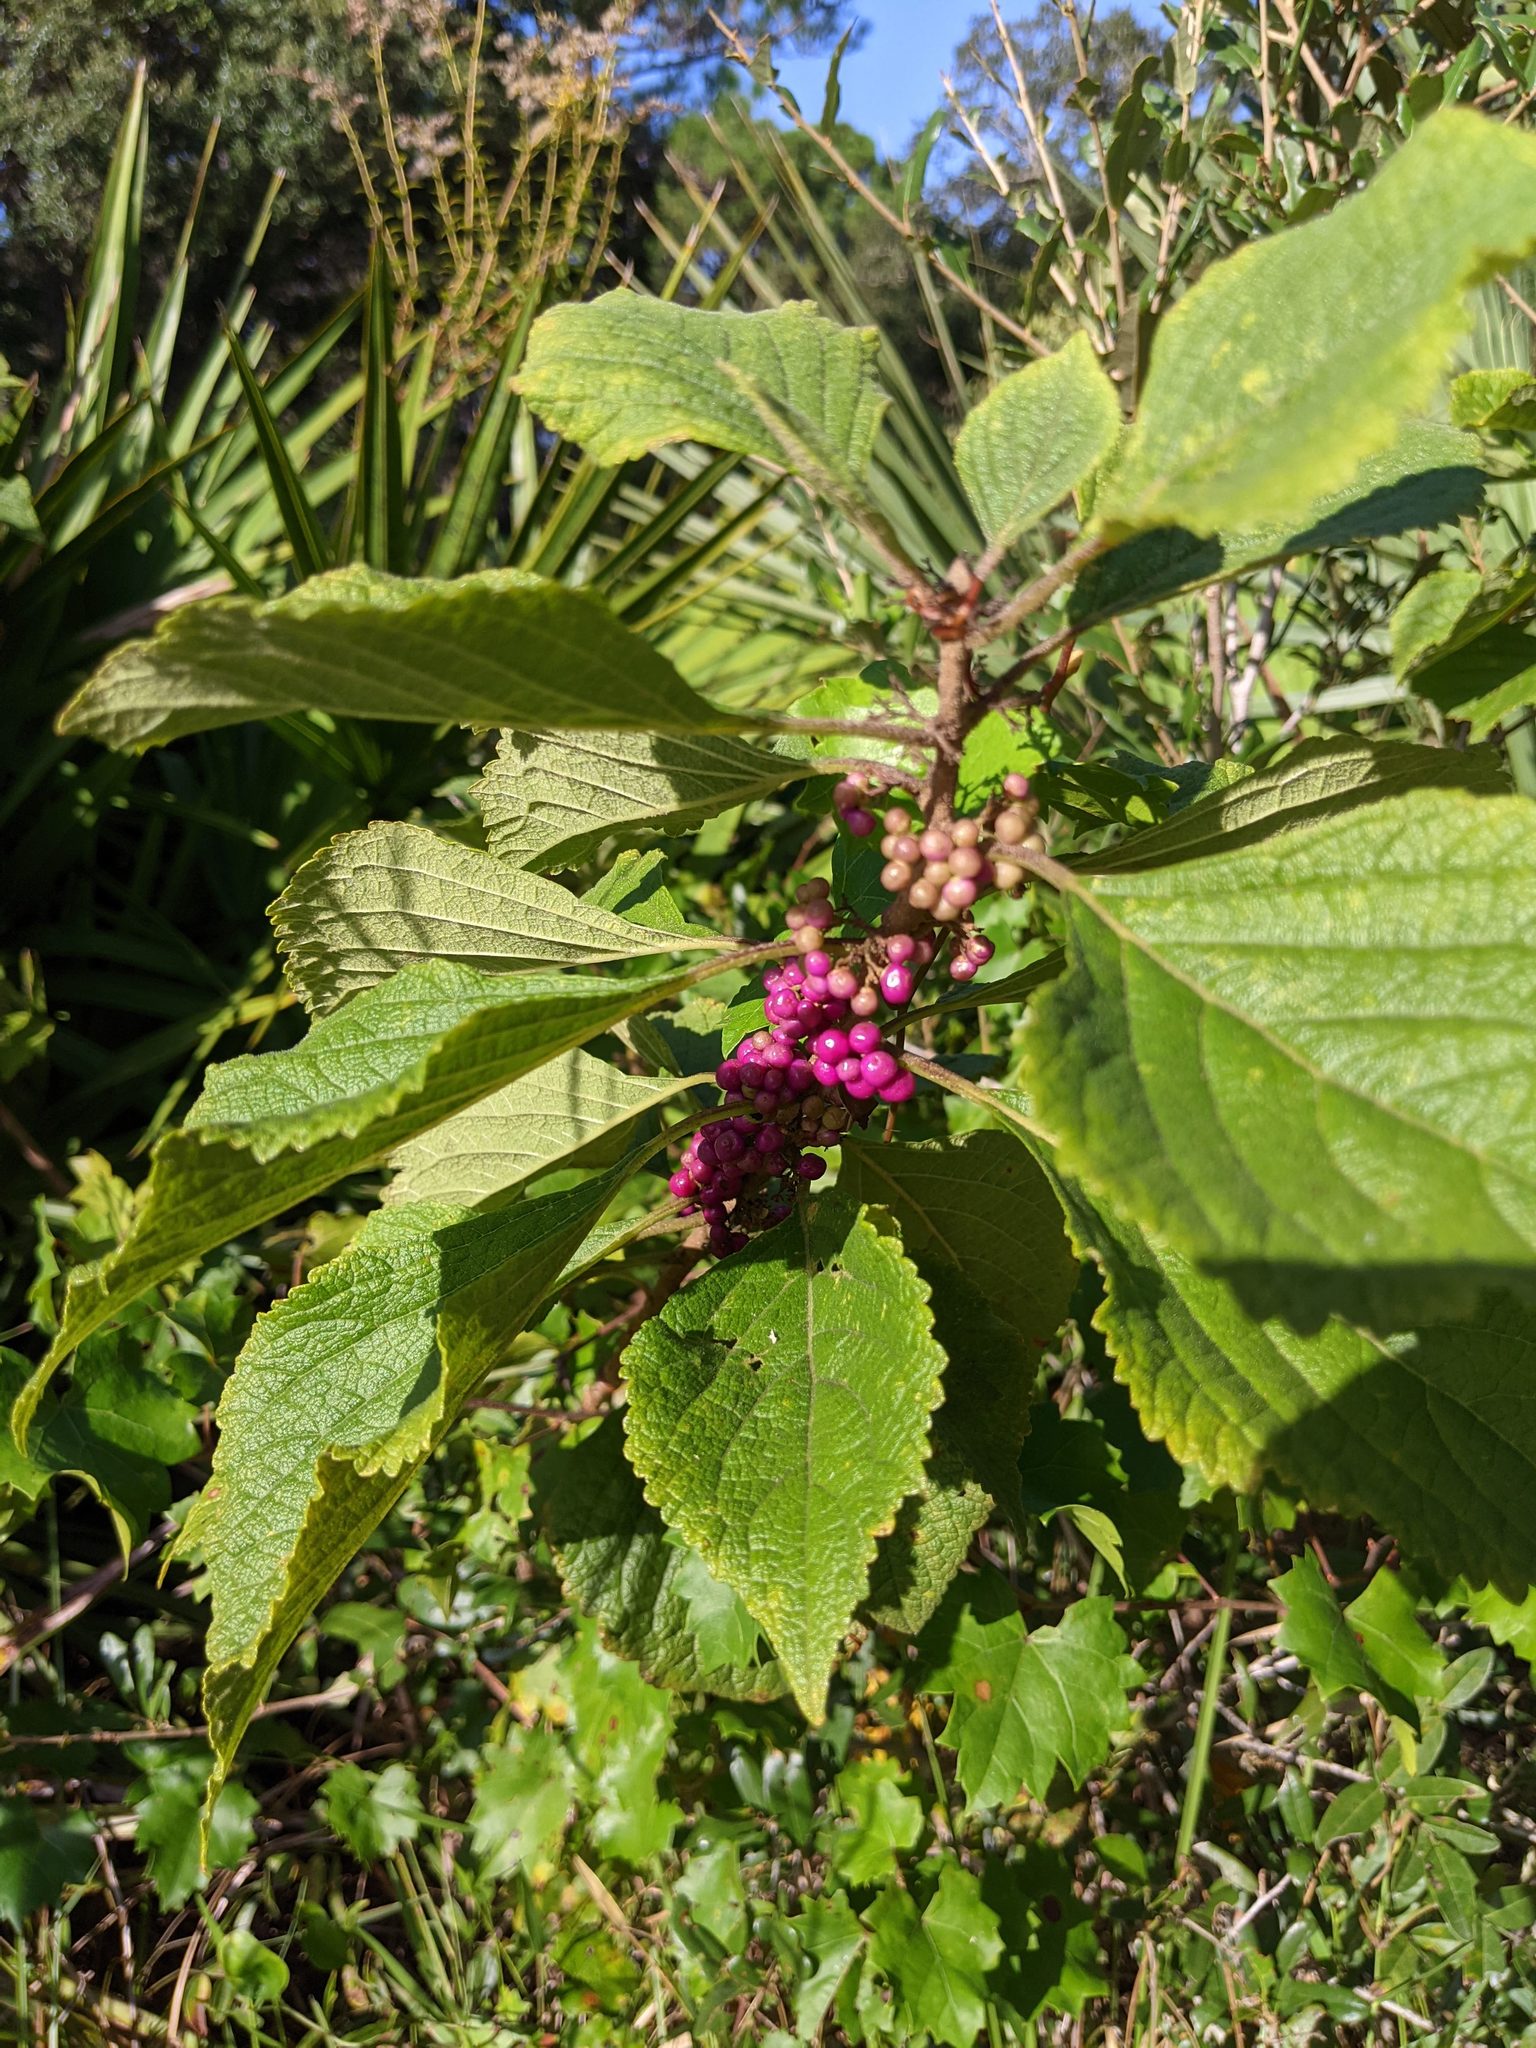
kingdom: Plantae
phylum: Tracheophyta
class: Magnoliopsida
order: Lamiales
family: Lamiaceae
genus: Callicarpa
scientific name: Callicarpa americana
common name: American beautyberry
